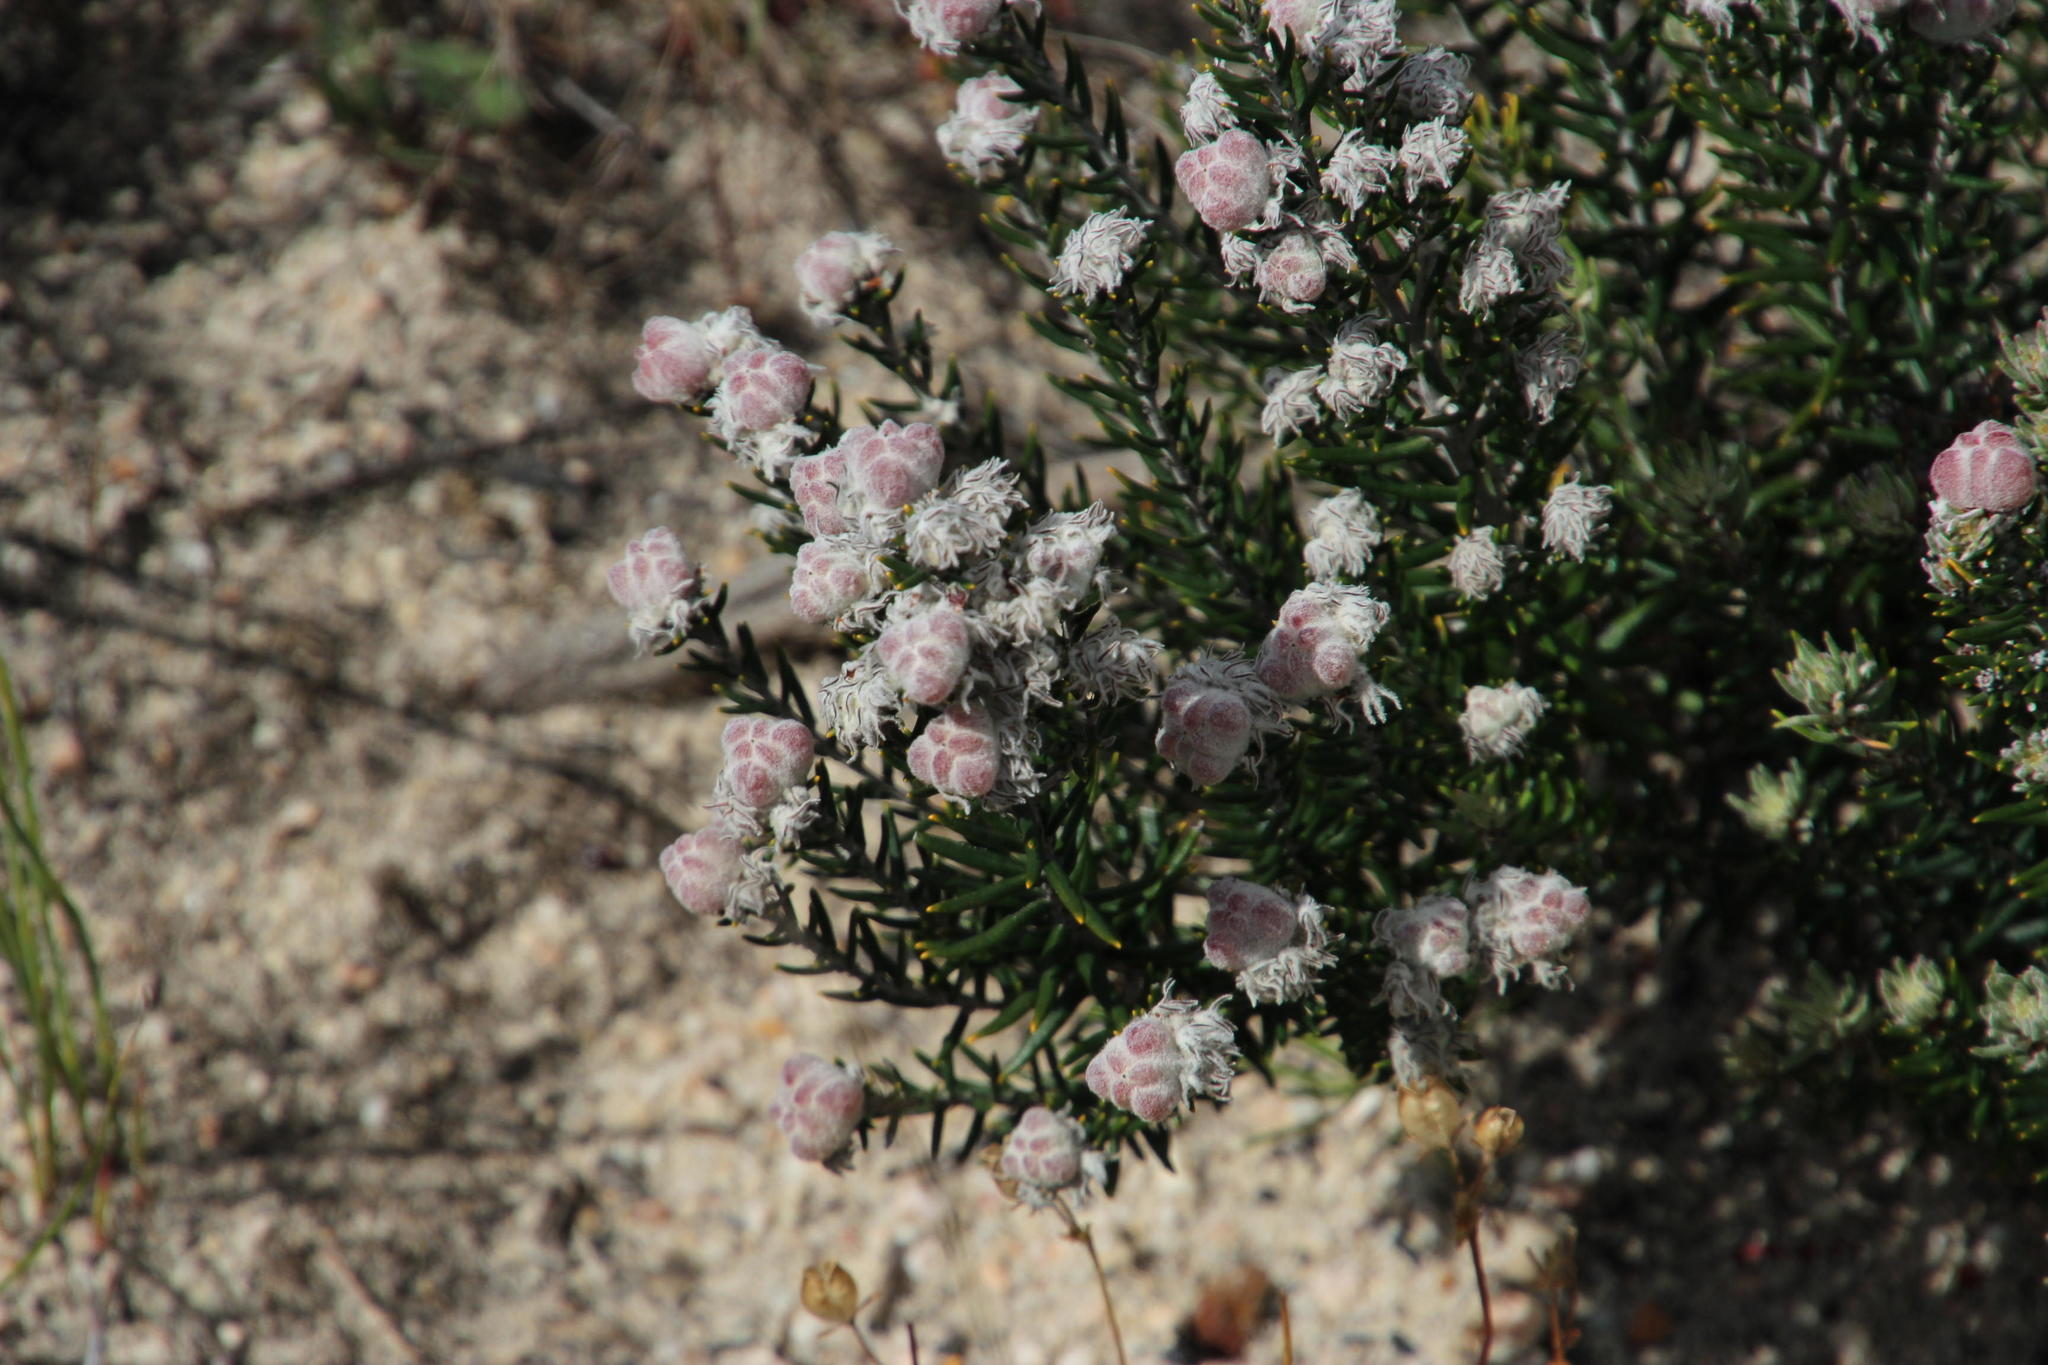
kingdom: Plantae
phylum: Tracheophyta
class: Magnoliopsida
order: Rosales
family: Rhamnaceae
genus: Trichocephalus
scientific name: Trichocephalus stipularis
